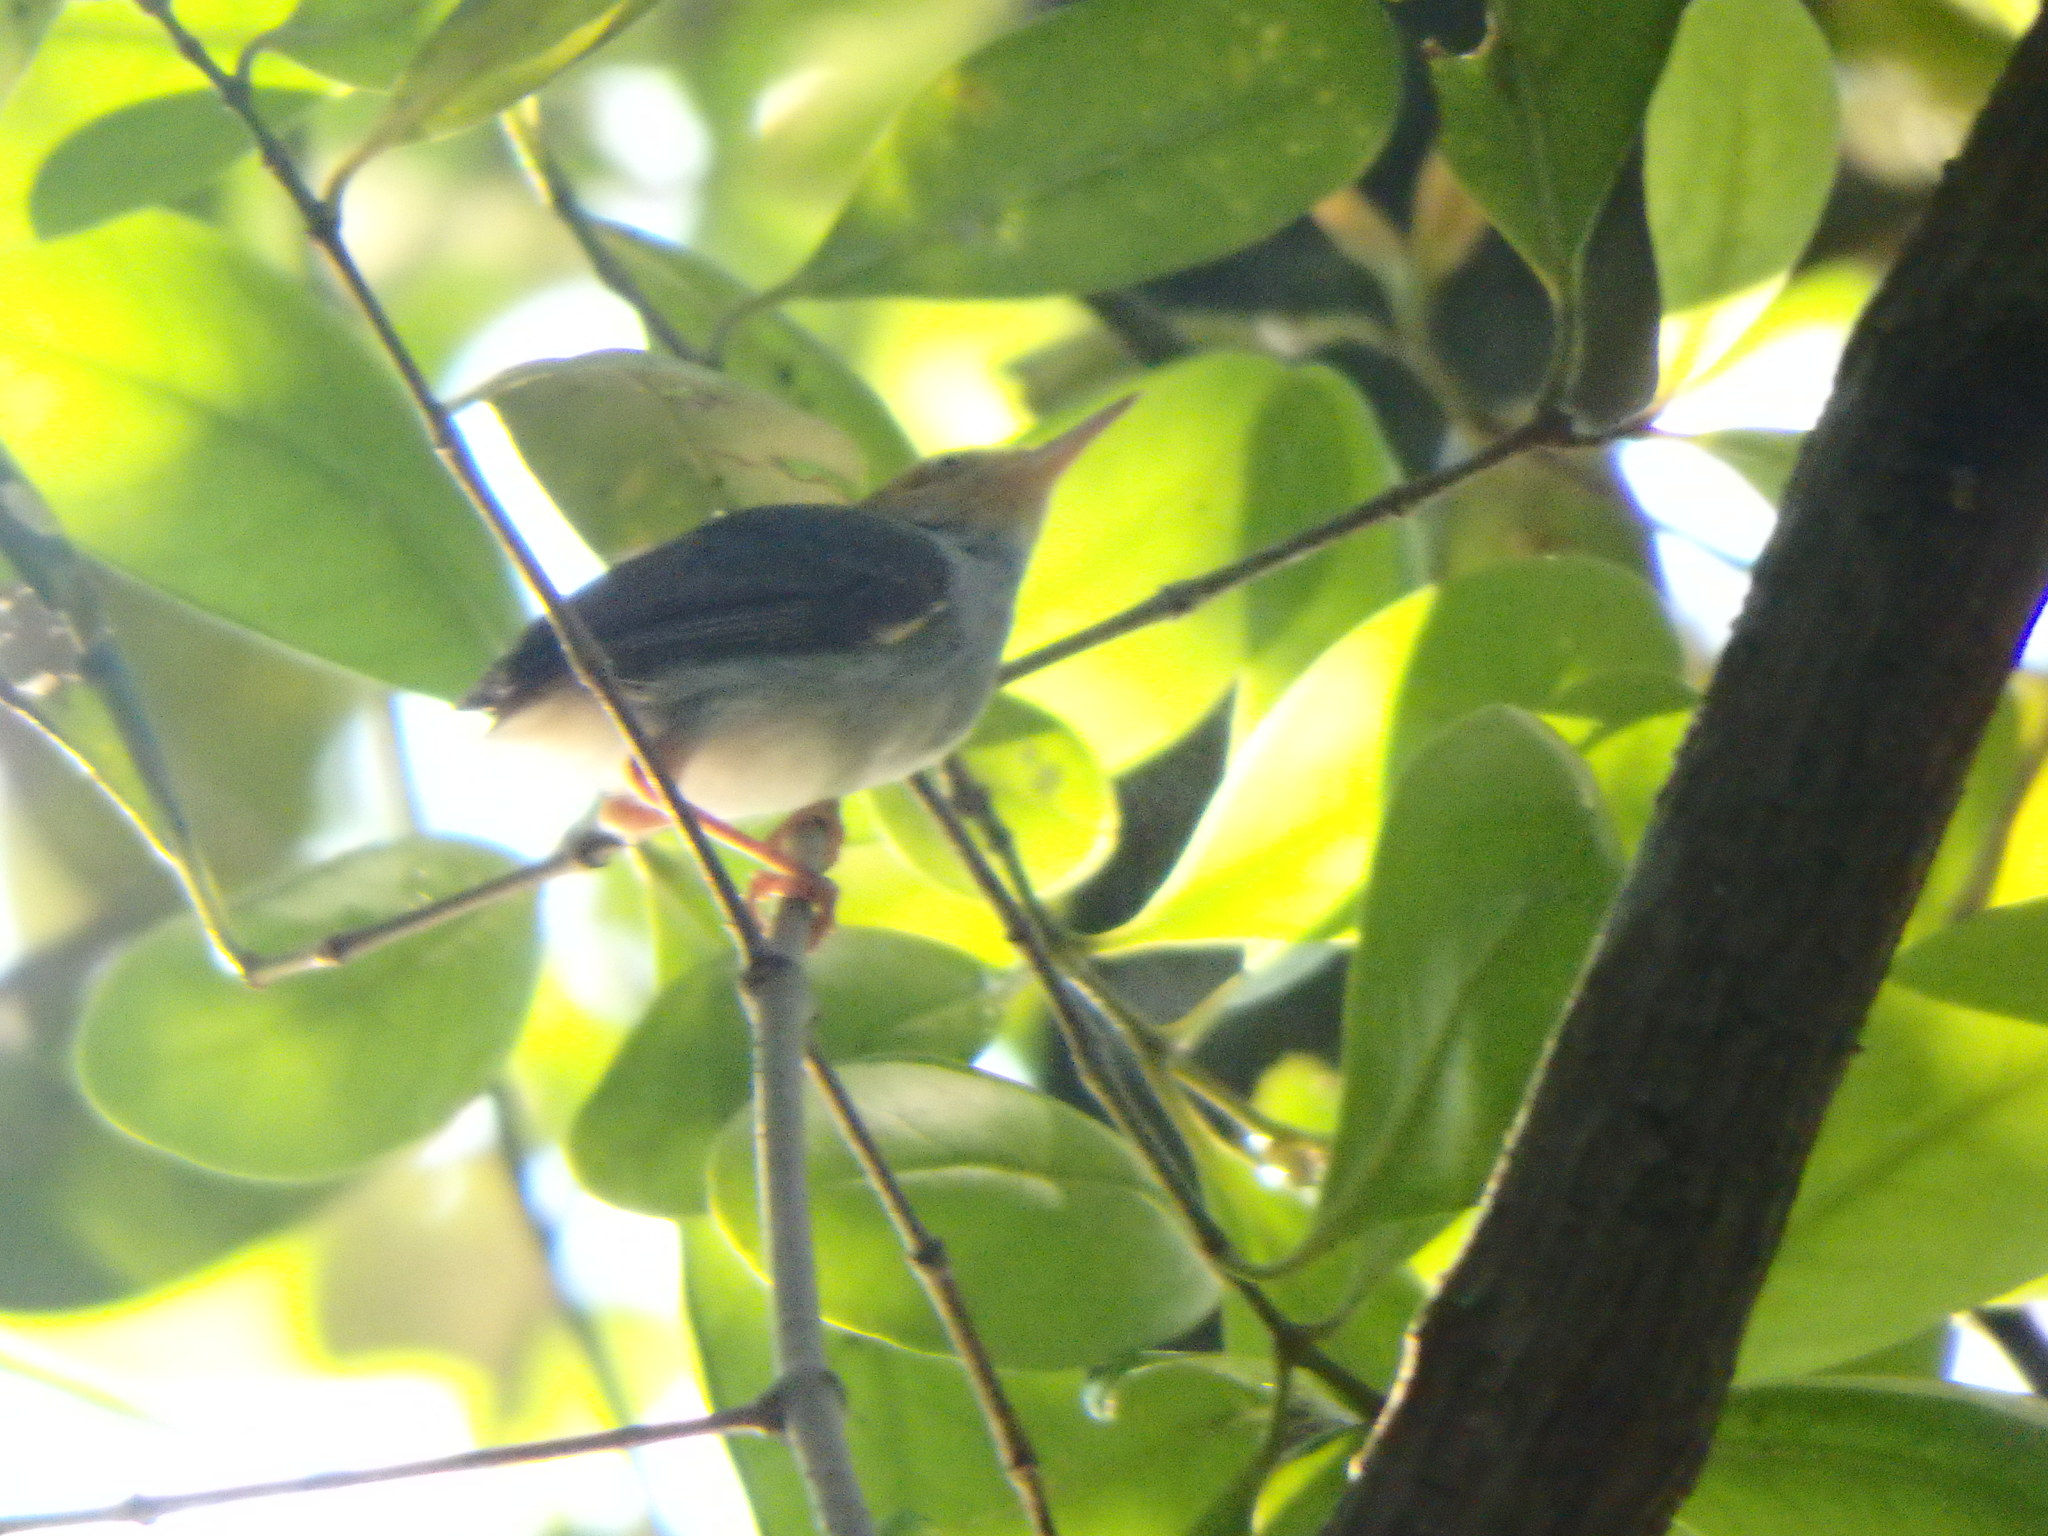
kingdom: Animalia
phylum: Chordata
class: Aves
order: Passeriformes
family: Cisticolidae
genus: Orthotomus
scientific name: Orthotomus ruficeps
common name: Ashy tailorbird
